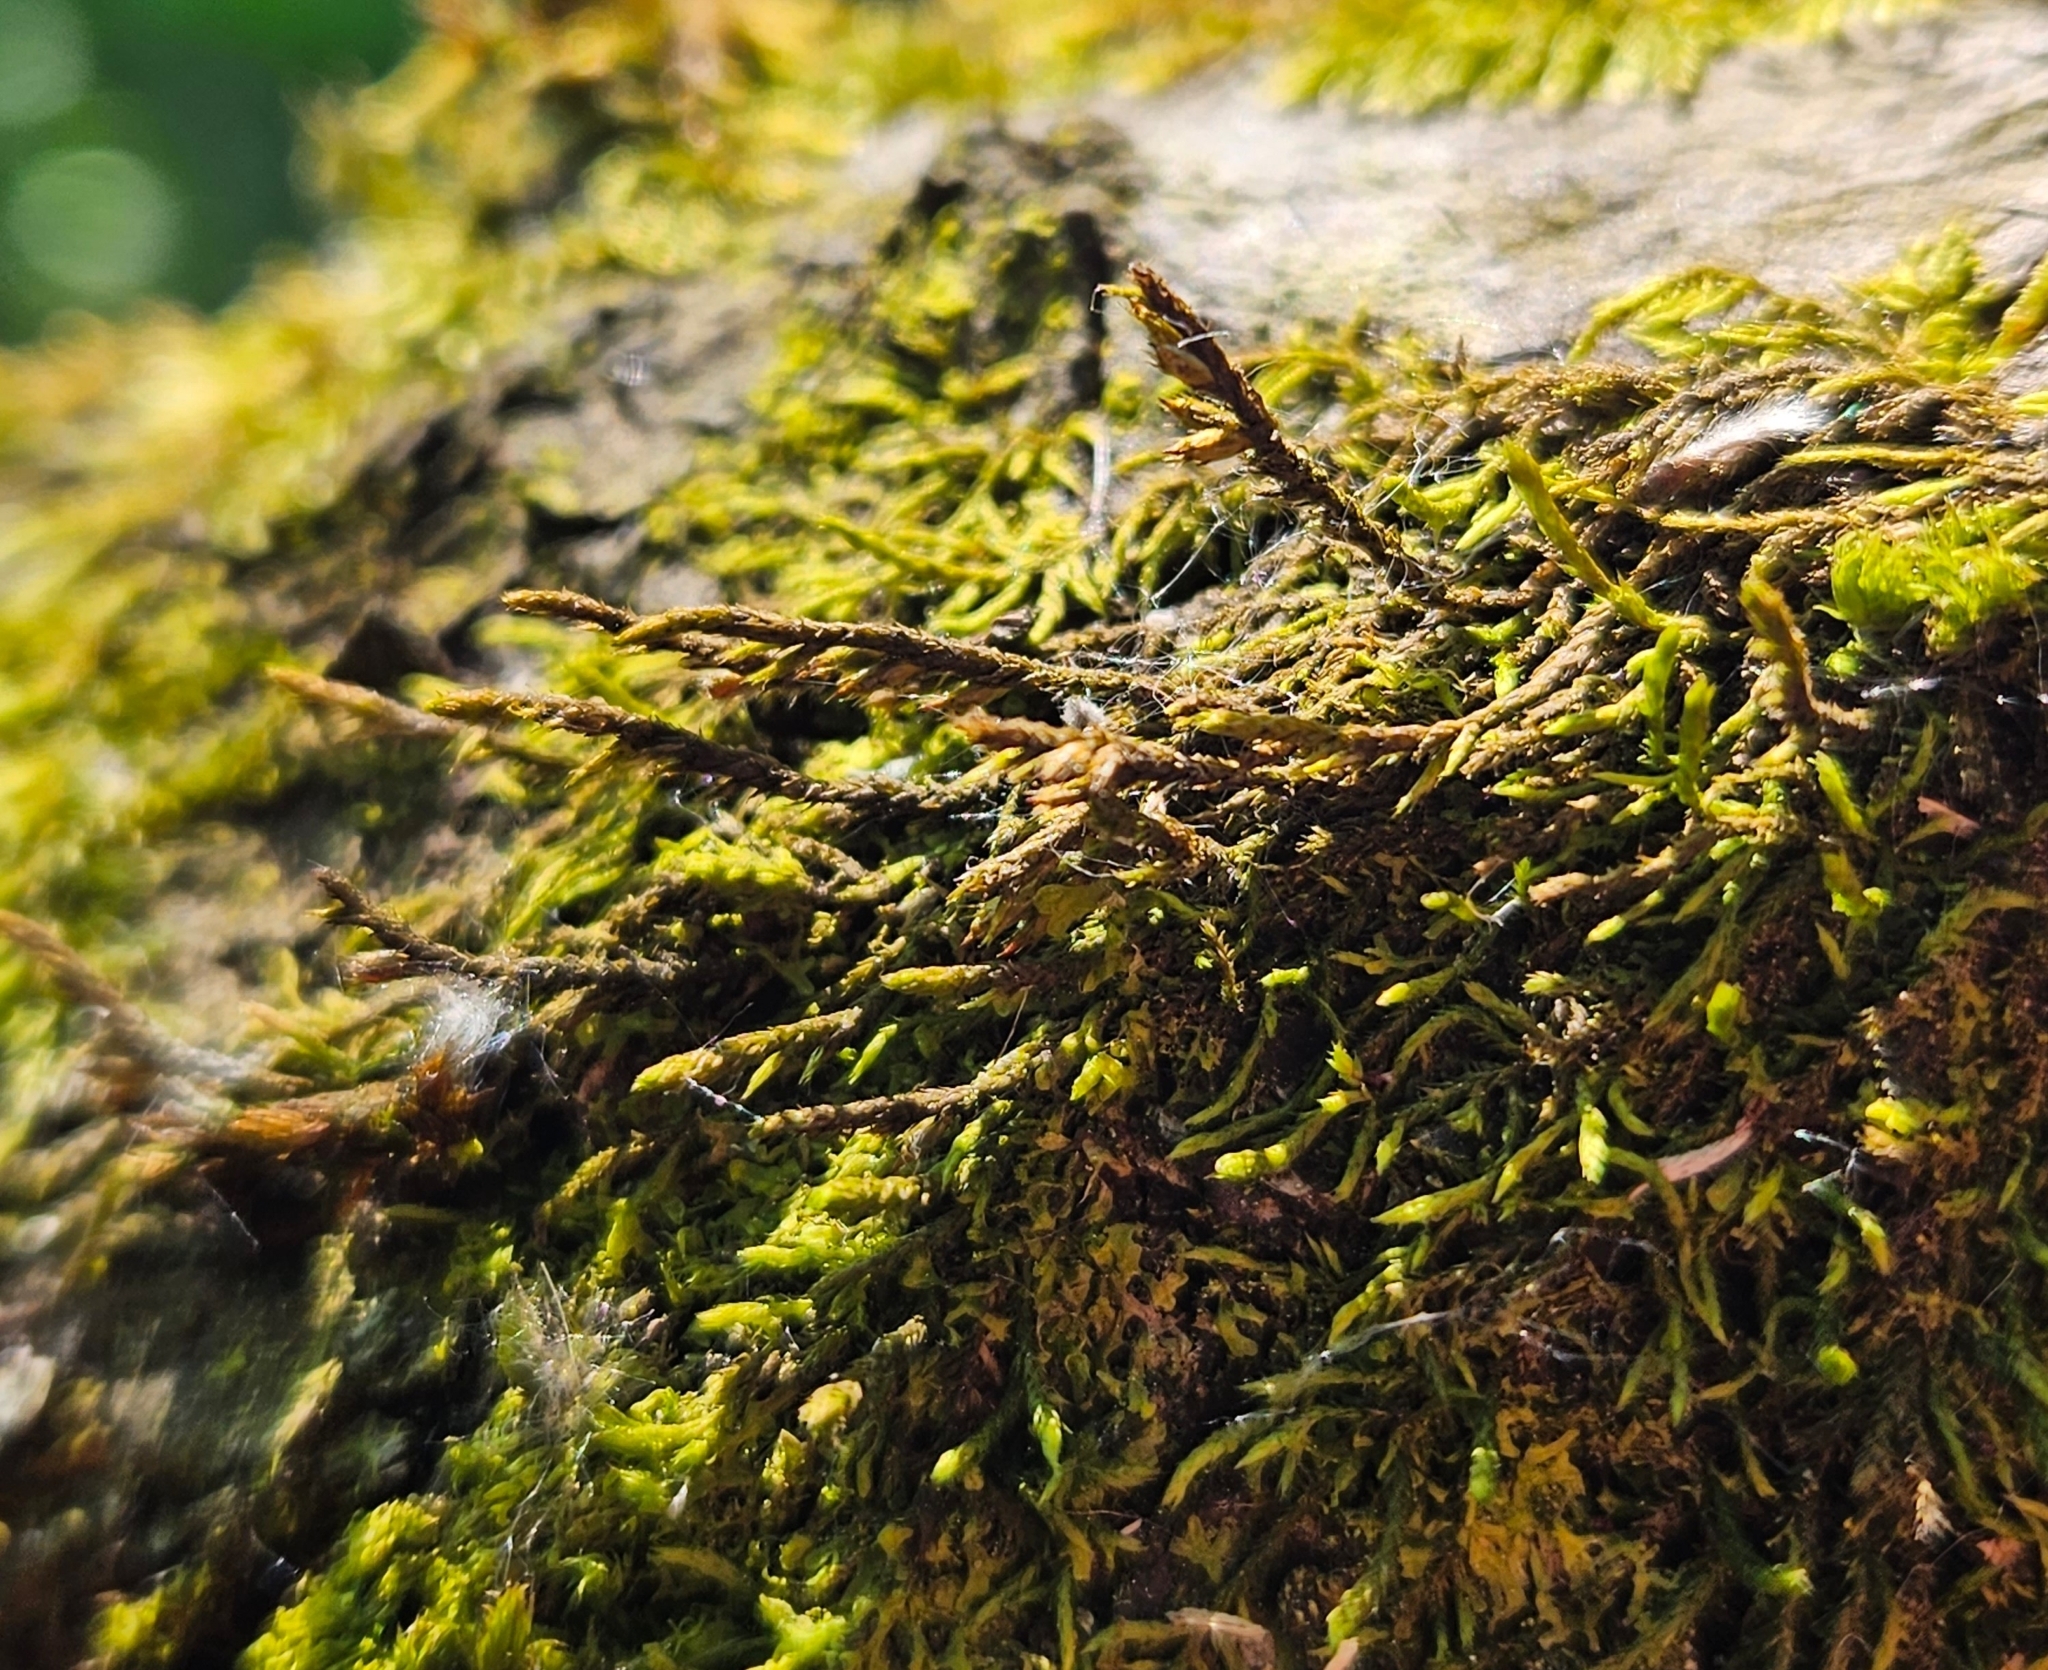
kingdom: Plantae
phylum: Bryophyta
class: Bryopsida
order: Hypnales
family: Cryphaeaceae
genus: Cryphaea
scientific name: Cryphaea heteromalla
